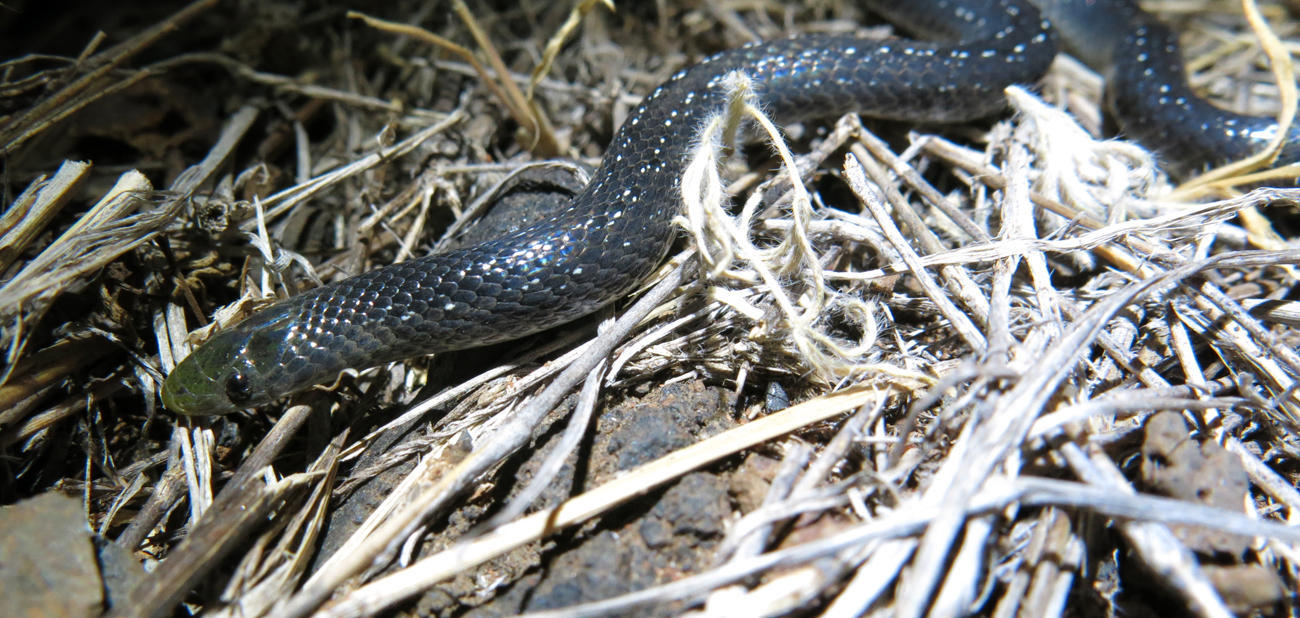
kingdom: Animalia
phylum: Chordata
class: Squamata
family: Prosymnidae
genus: Prosymna
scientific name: Prosymna stuhlmanni
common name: East african shovel-snout snake
